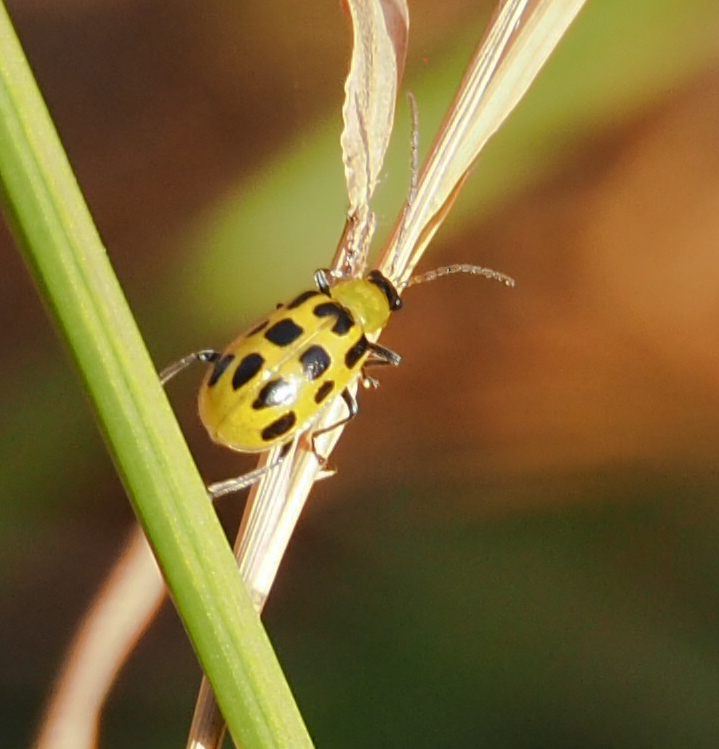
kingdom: Animalia
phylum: Arthropoda
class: Insecta
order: Coleoptera
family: Chrysomelidae
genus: Diabrotica
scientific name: Diabrotica undecimpunctata
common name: Spotted cucumber beetle
